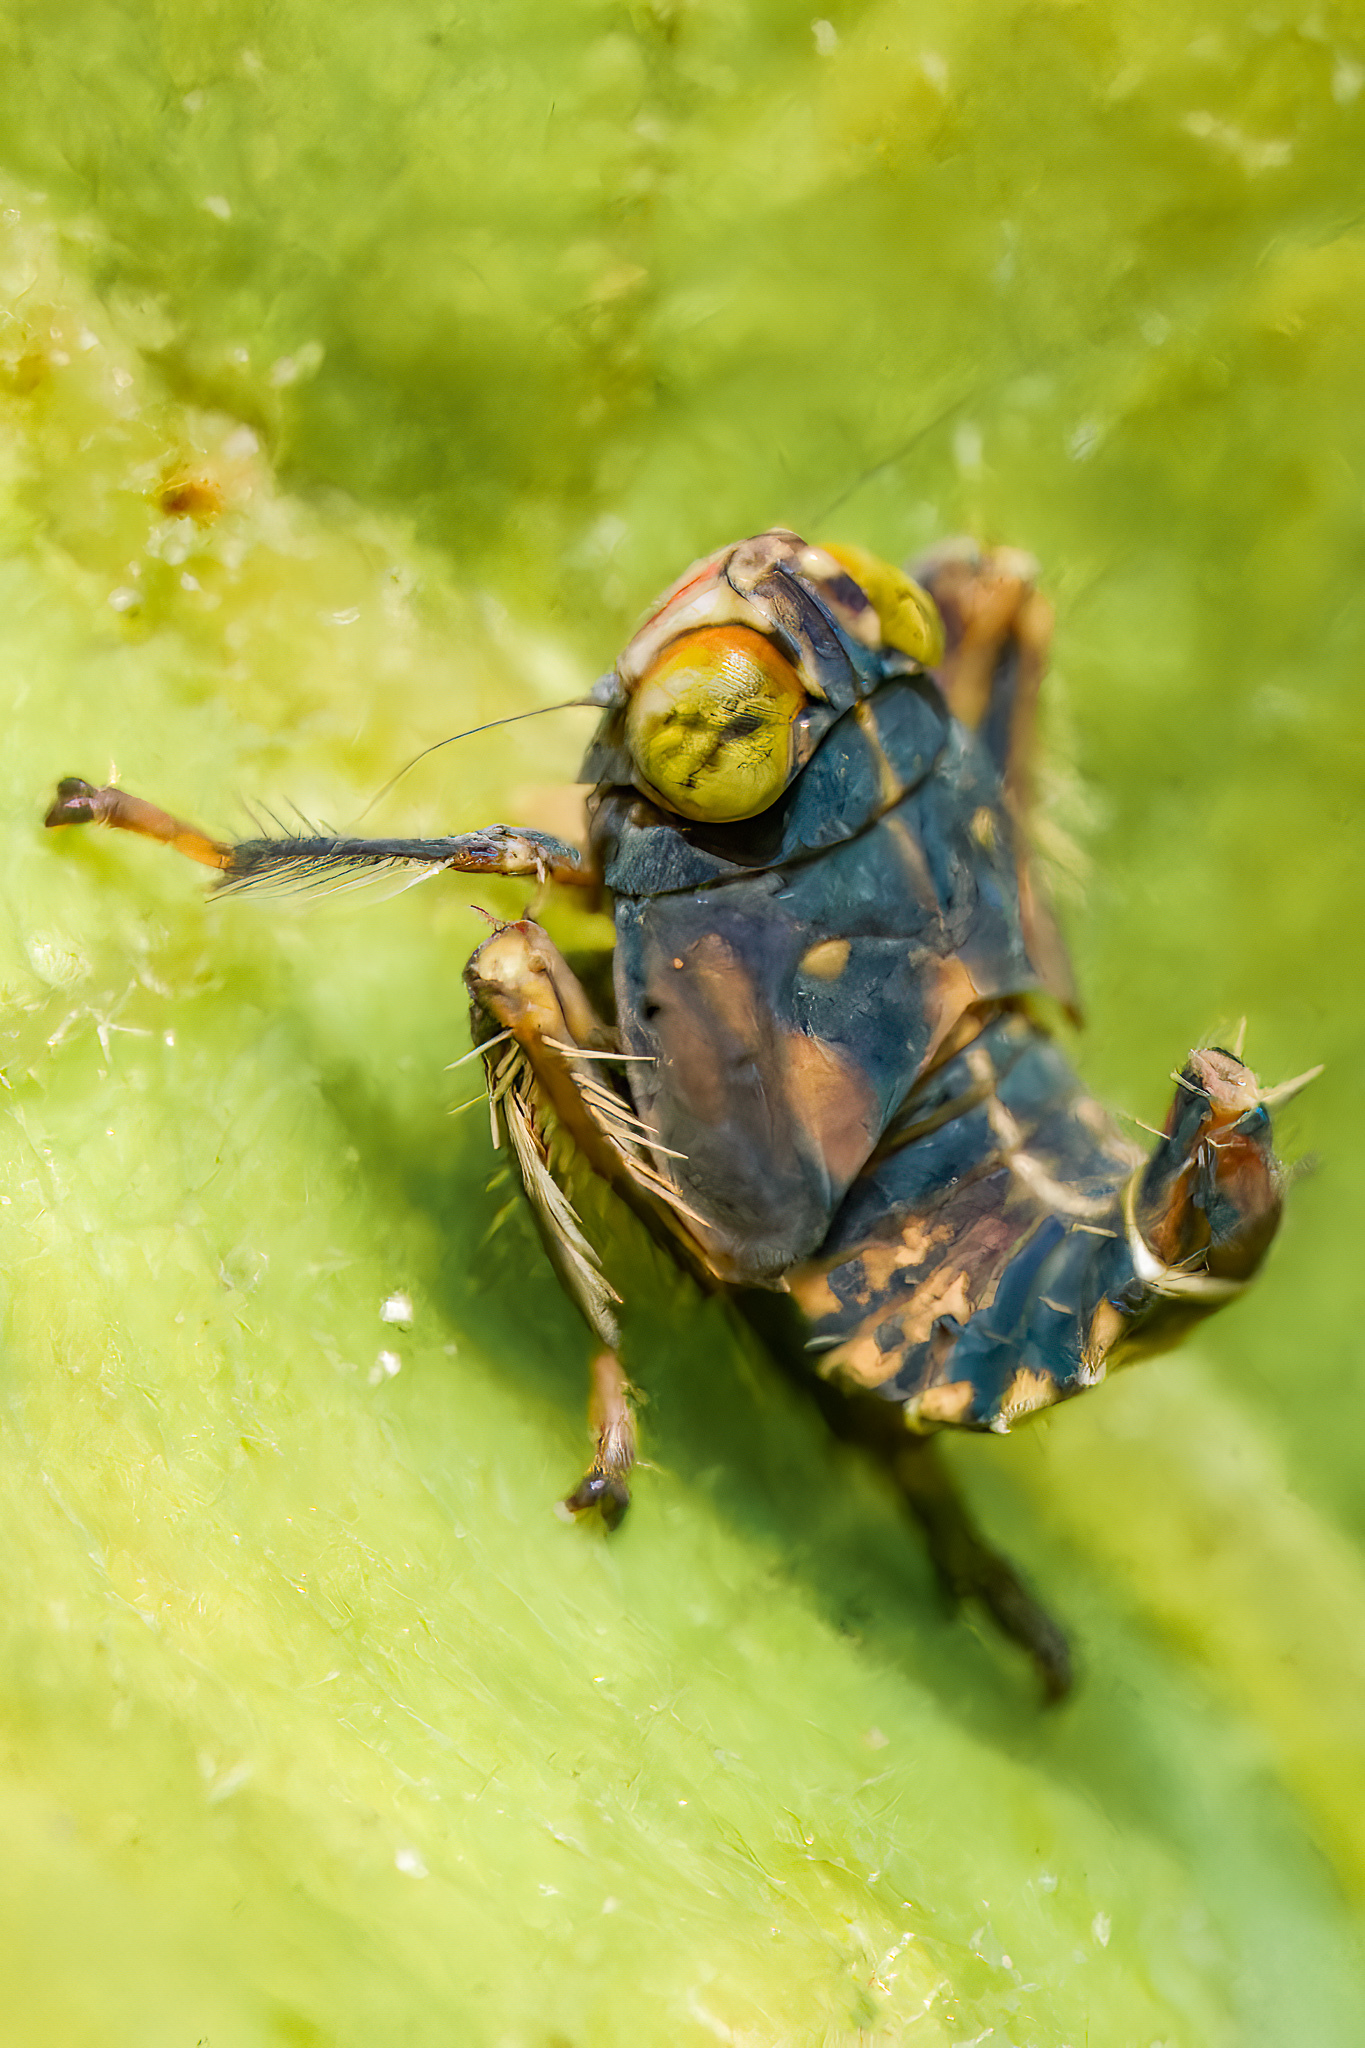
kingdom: Animalia
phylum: Arthropoda
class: Insecta
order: Hemiptera
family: Cicadellidae
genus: Jikradia
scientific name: Jikradia olitoria
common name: Coppery leafhopper
